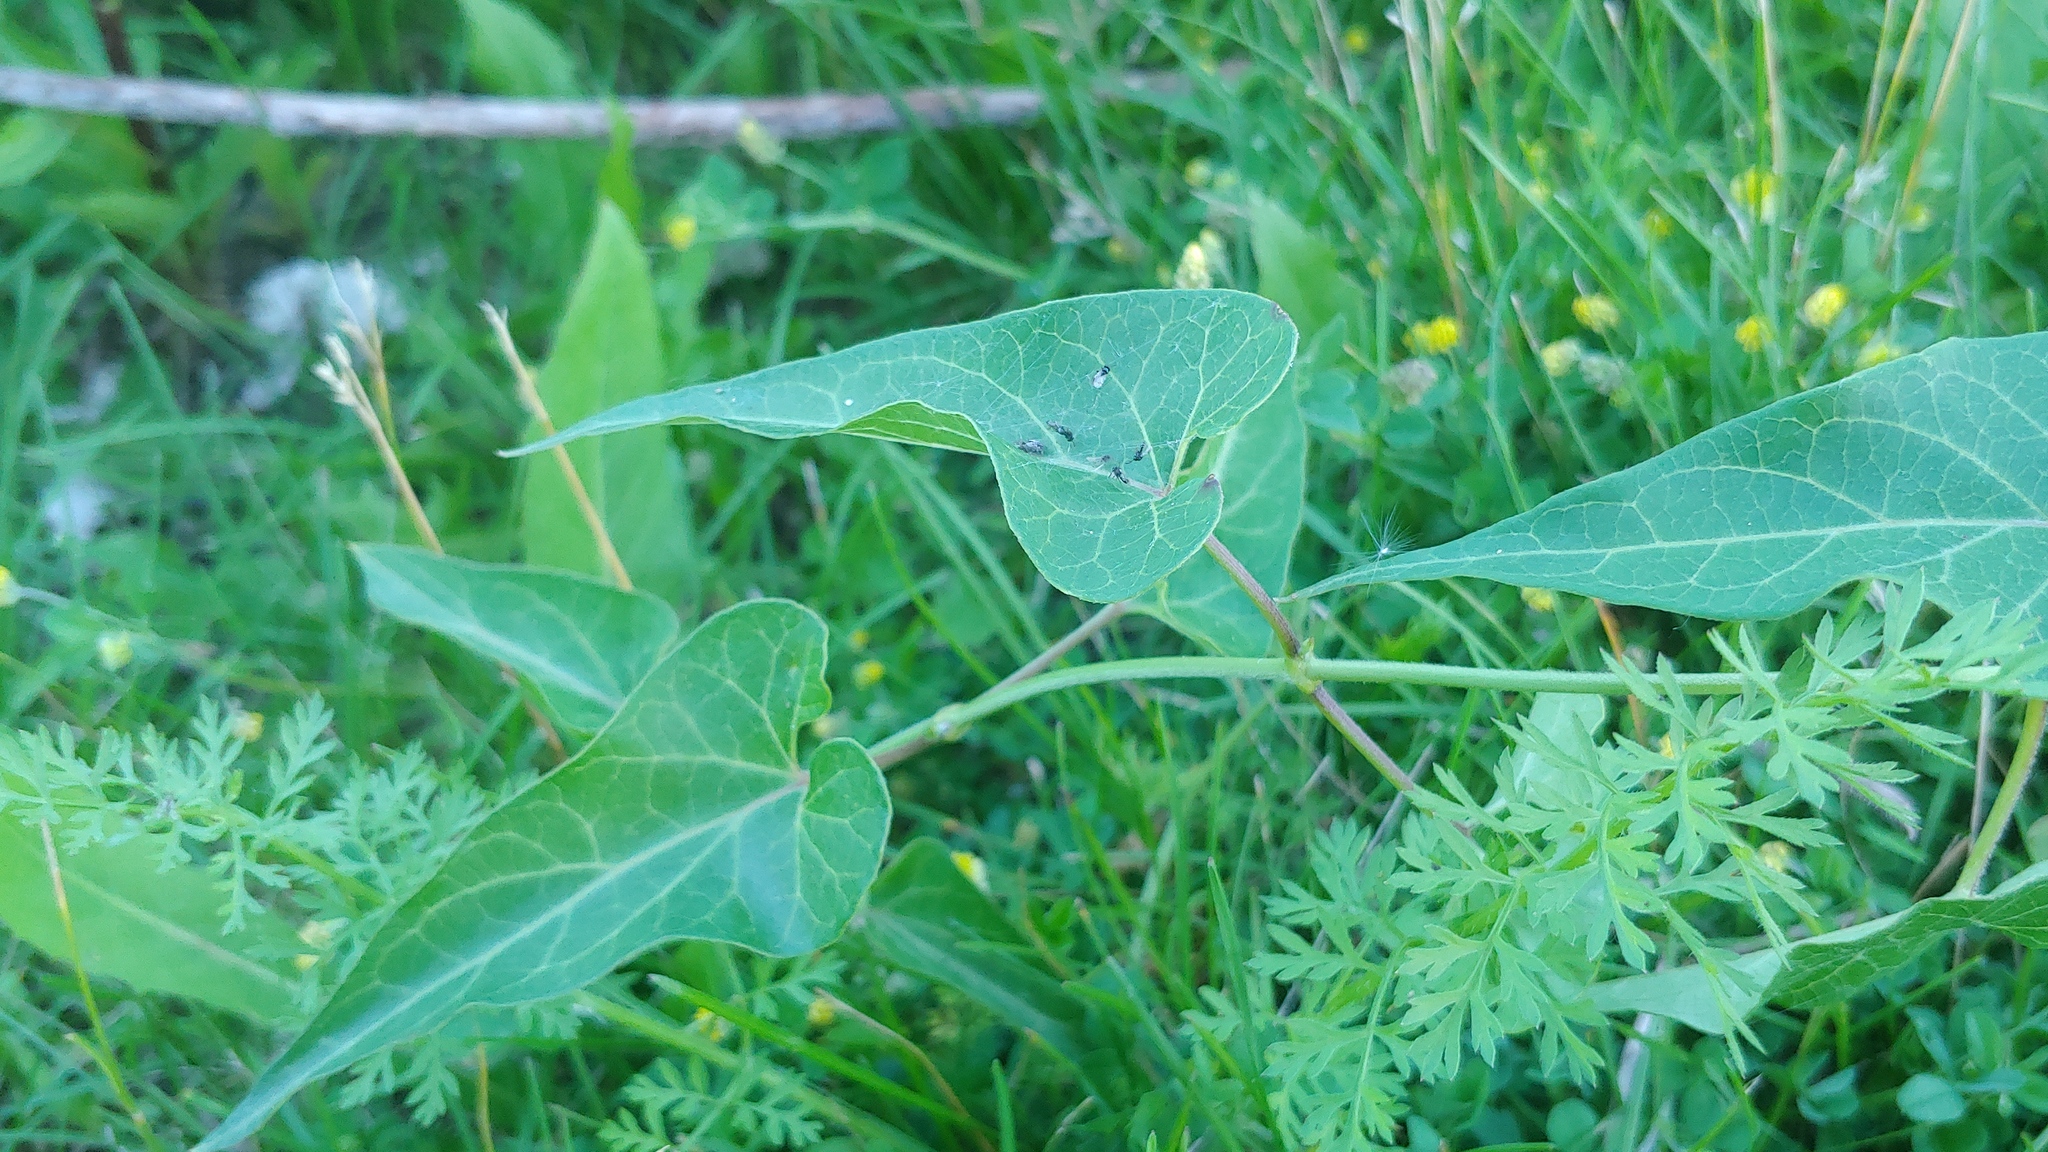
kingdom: Plantae
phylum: Tracheophyta
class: Magnoliopsida
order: Gentianales
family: Apocynaceae
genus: Cynanchum
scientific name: Cynanchum laeve
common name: Sandvine
